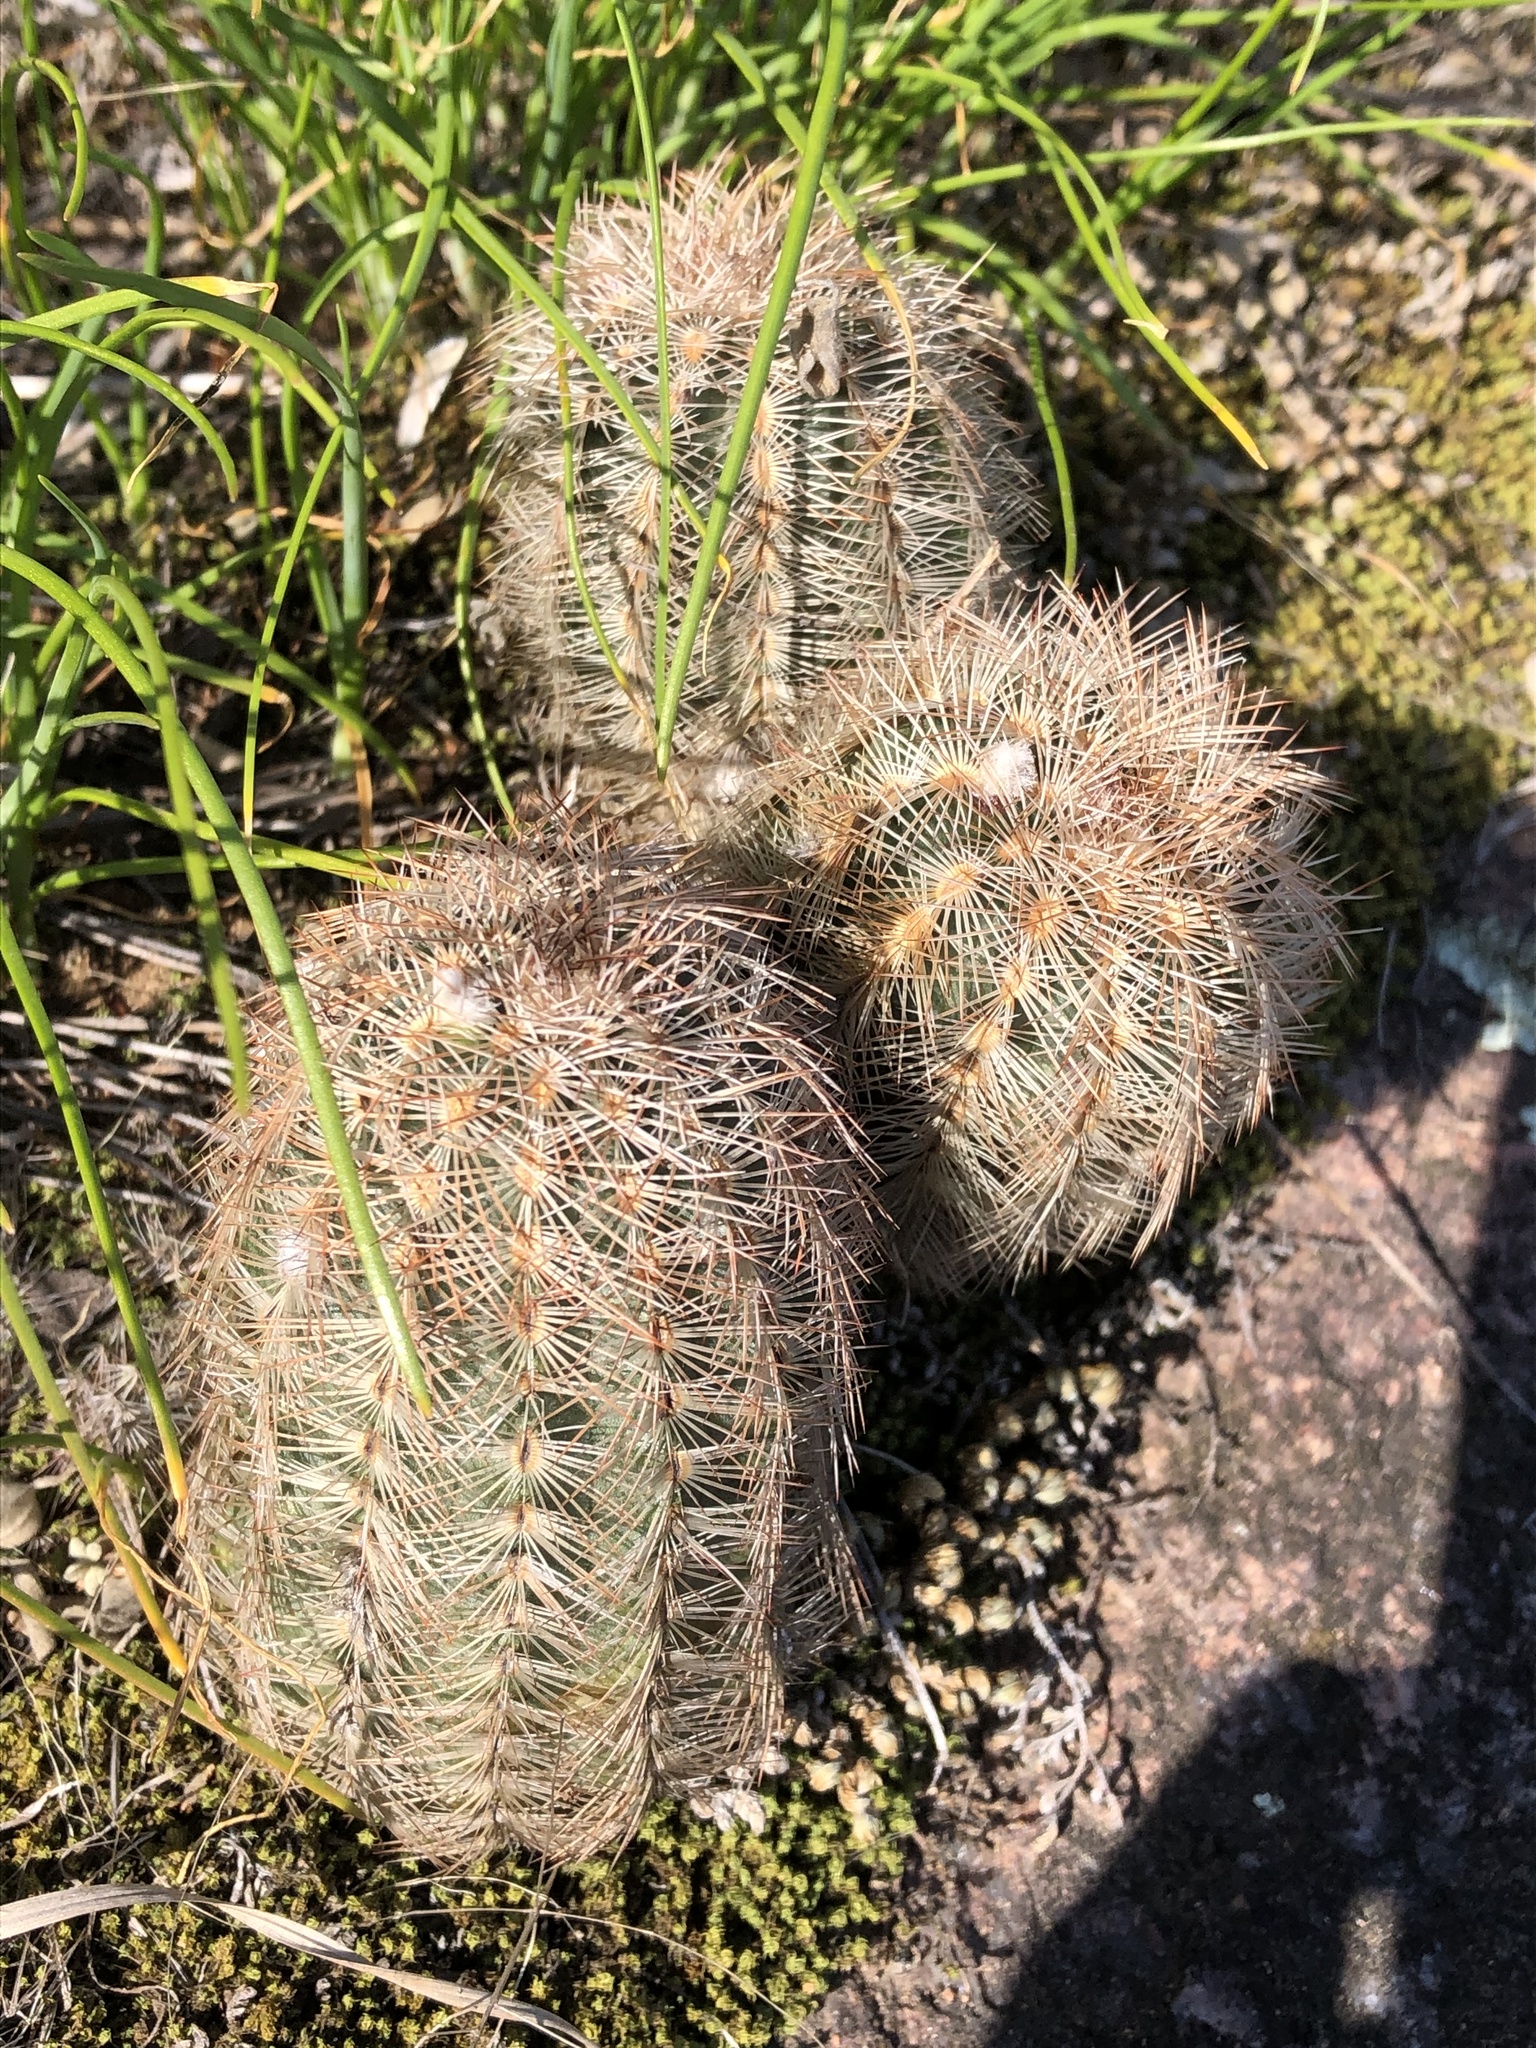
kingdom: Plantae
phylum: Tracheophyta
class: Magnoliopsida
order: Caryophyllales
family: Cactaceae
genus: Echinocereus
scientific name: Echinocereus reichenbachii
